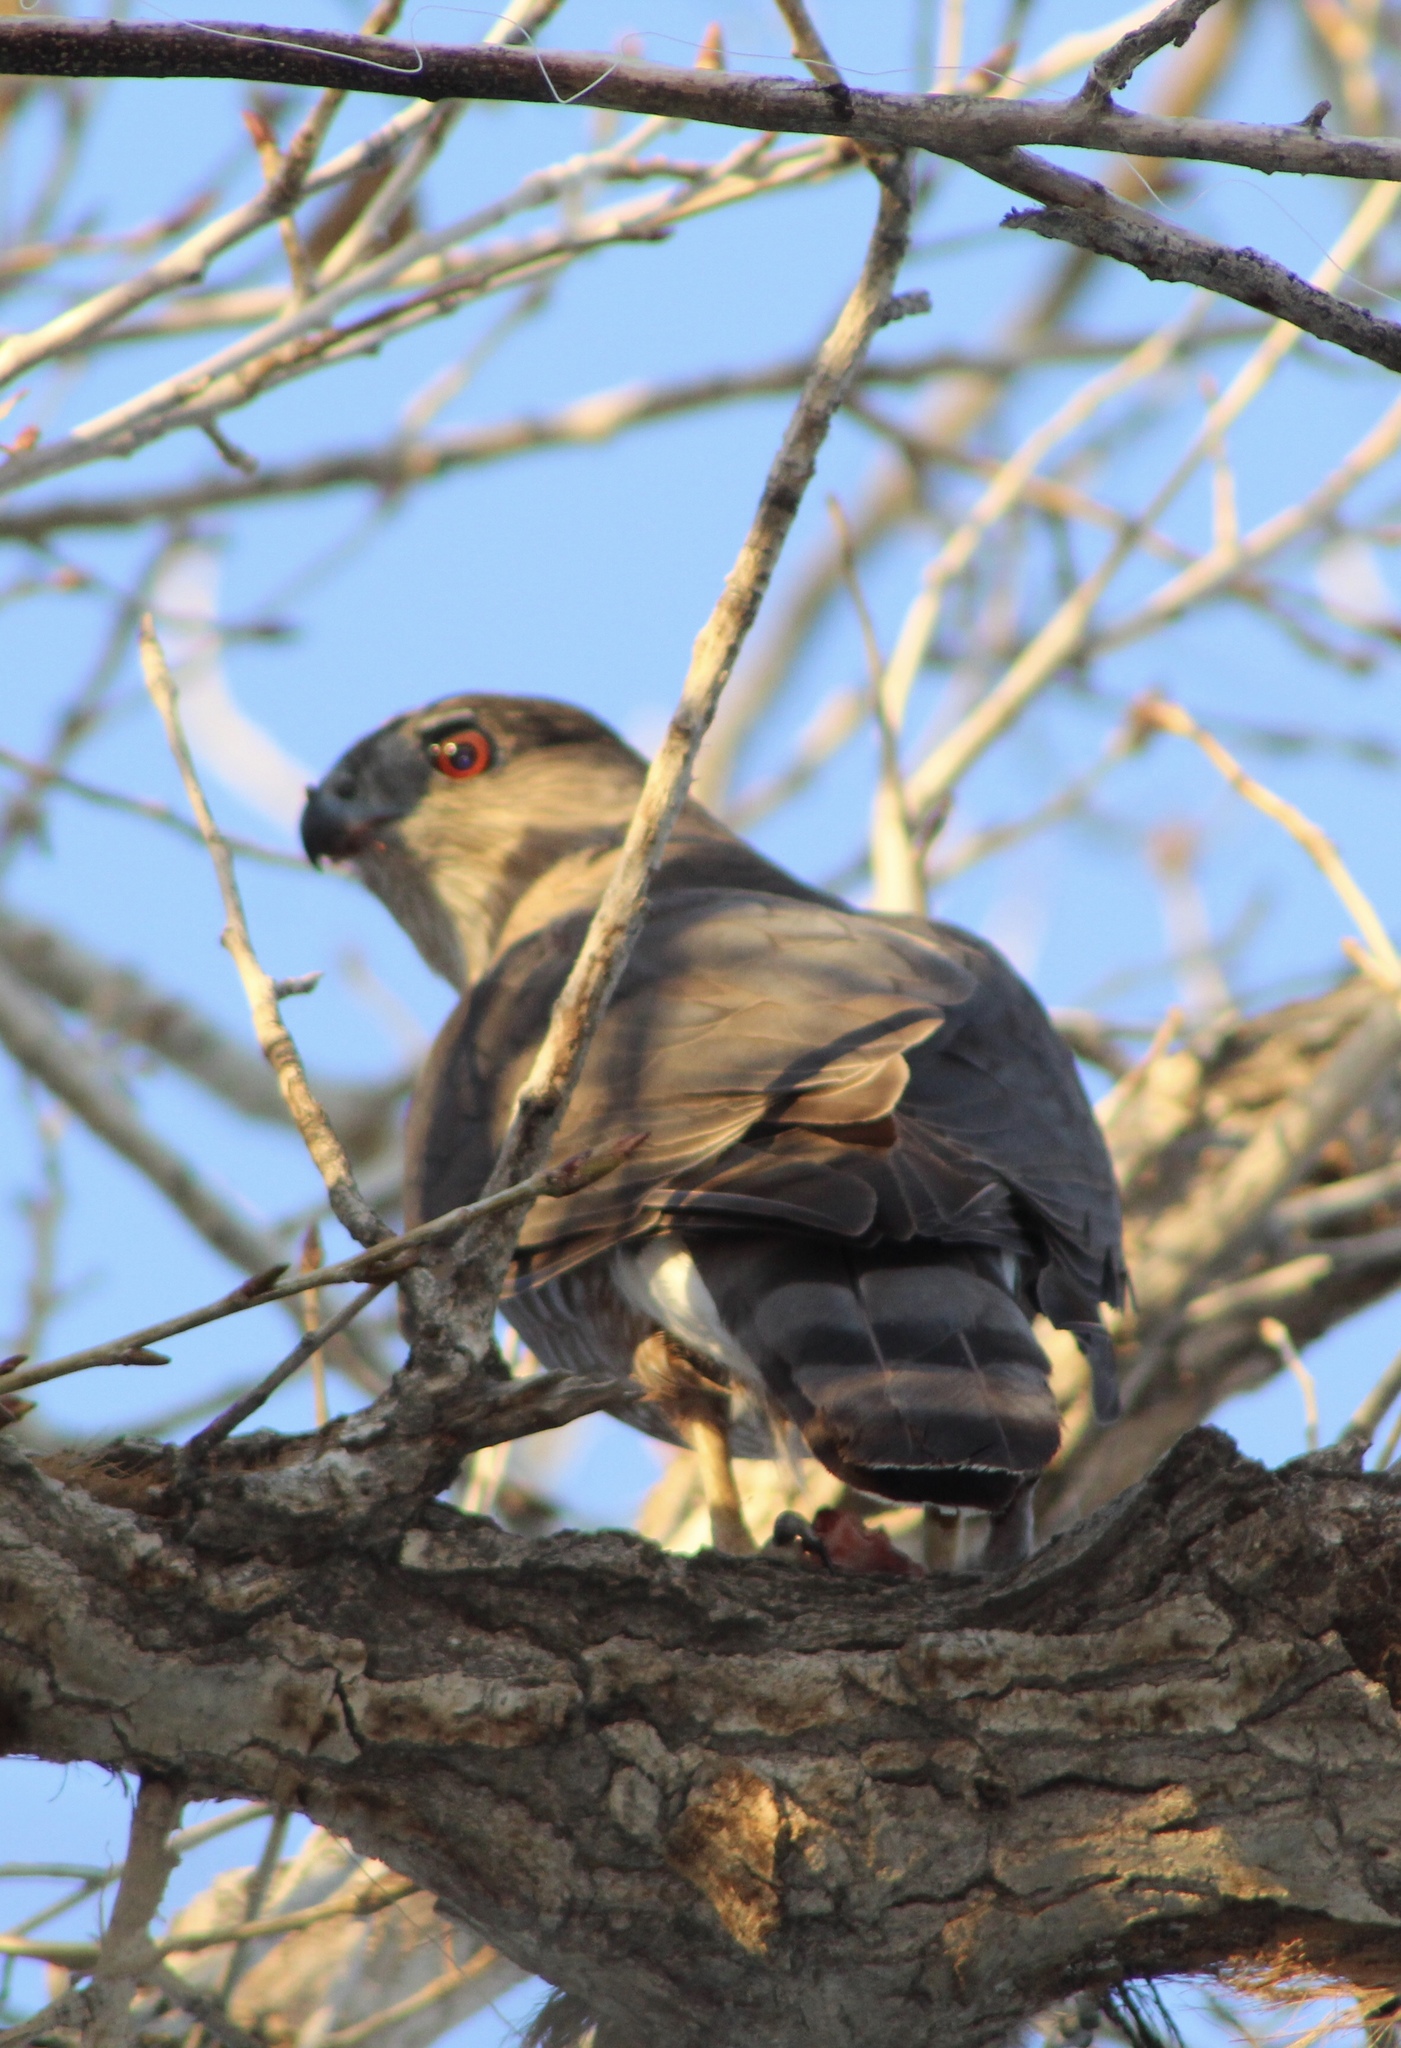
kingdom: Animalia
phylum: Chordata
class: Aves
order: Accipitriformes
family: Accipitridae
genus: Accipiter
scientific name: Accipiter cooperii
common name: Cooper's hawk
